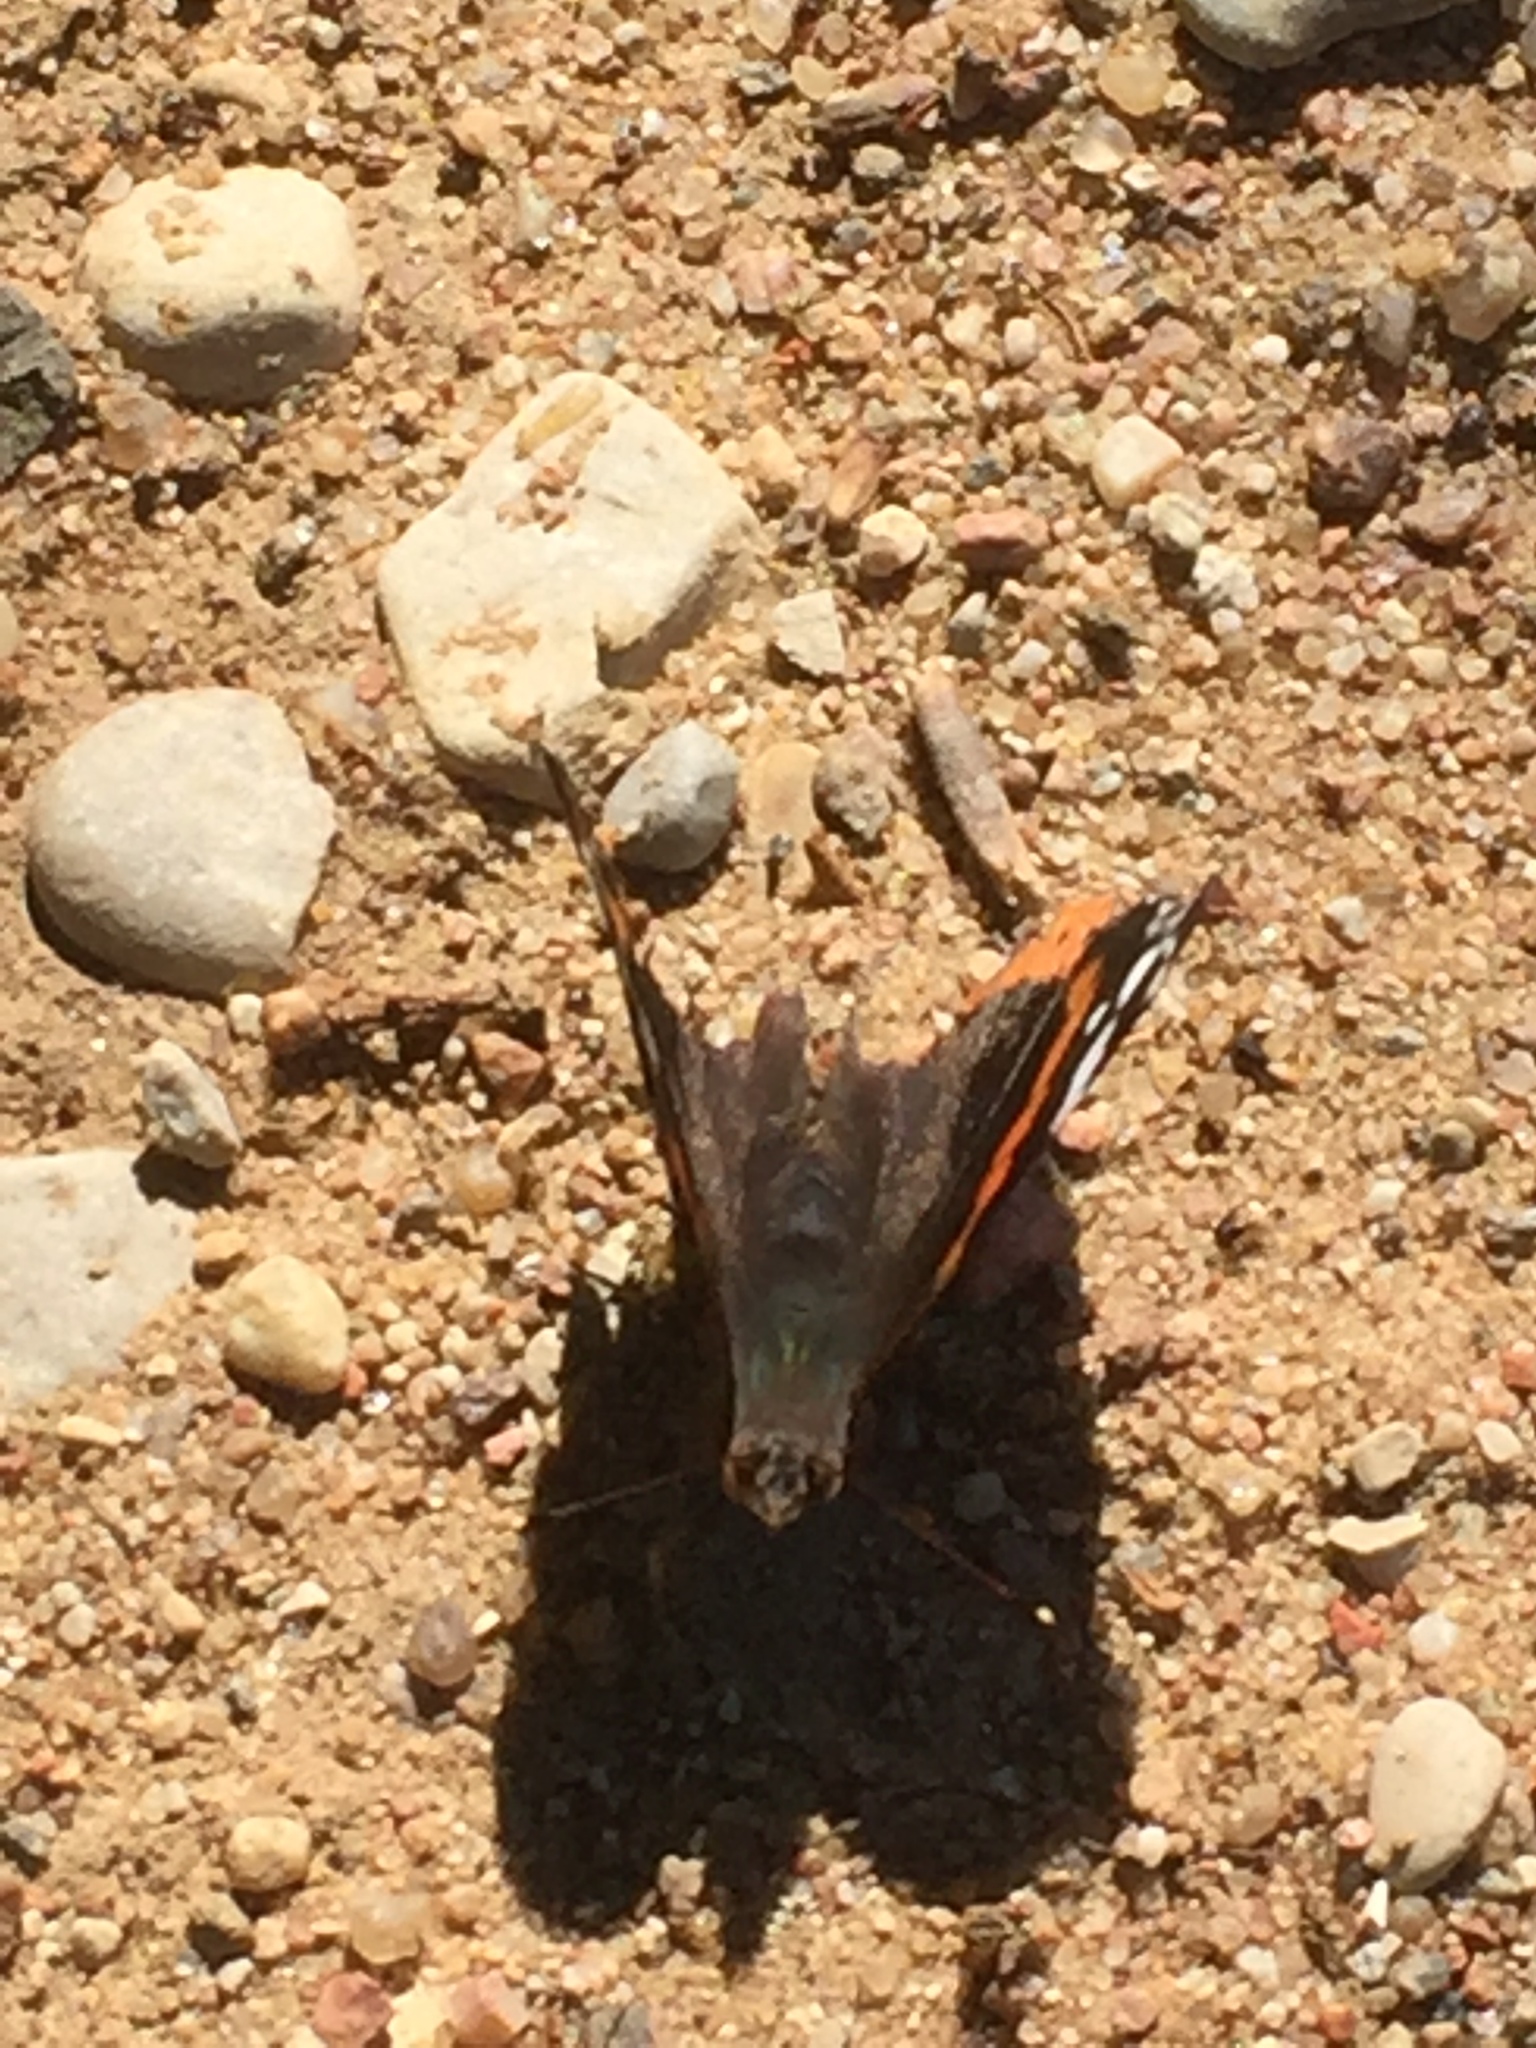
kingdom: Animalia
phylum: Arthropoda
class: Insecta
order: Lepidoptera
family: Nymphalidae
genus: Vanessa
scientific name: Vanessa atalanta
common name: Red admiral
